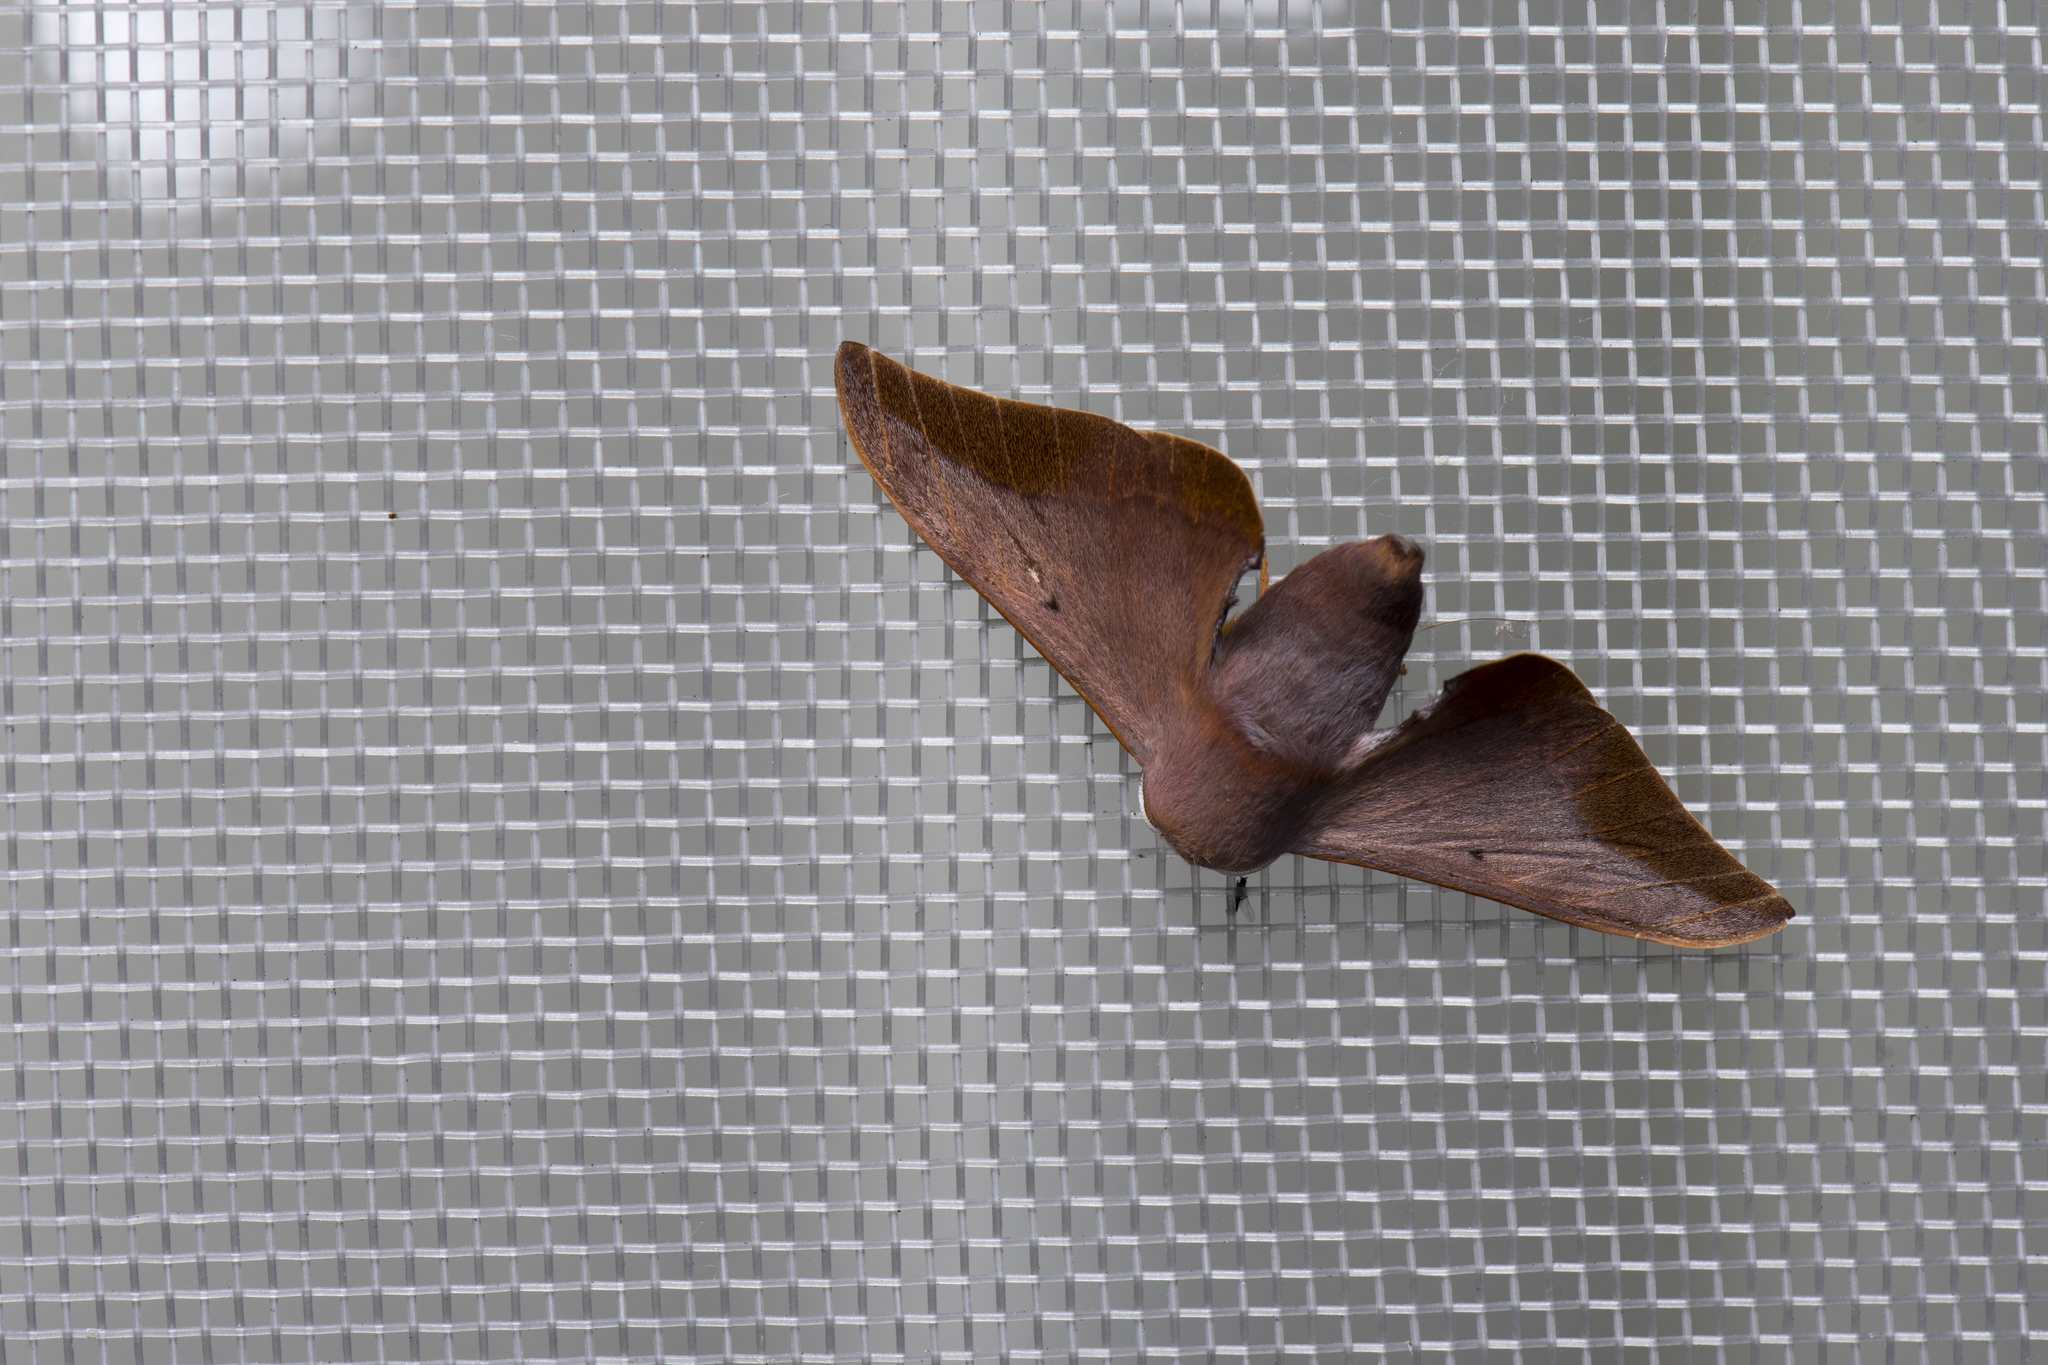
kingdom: Animalia
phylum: Arthropoda
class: Insecta
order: Lepidoptera
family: Endromidae
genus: Comparmustilia
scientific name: Comparmustilia gerontica
